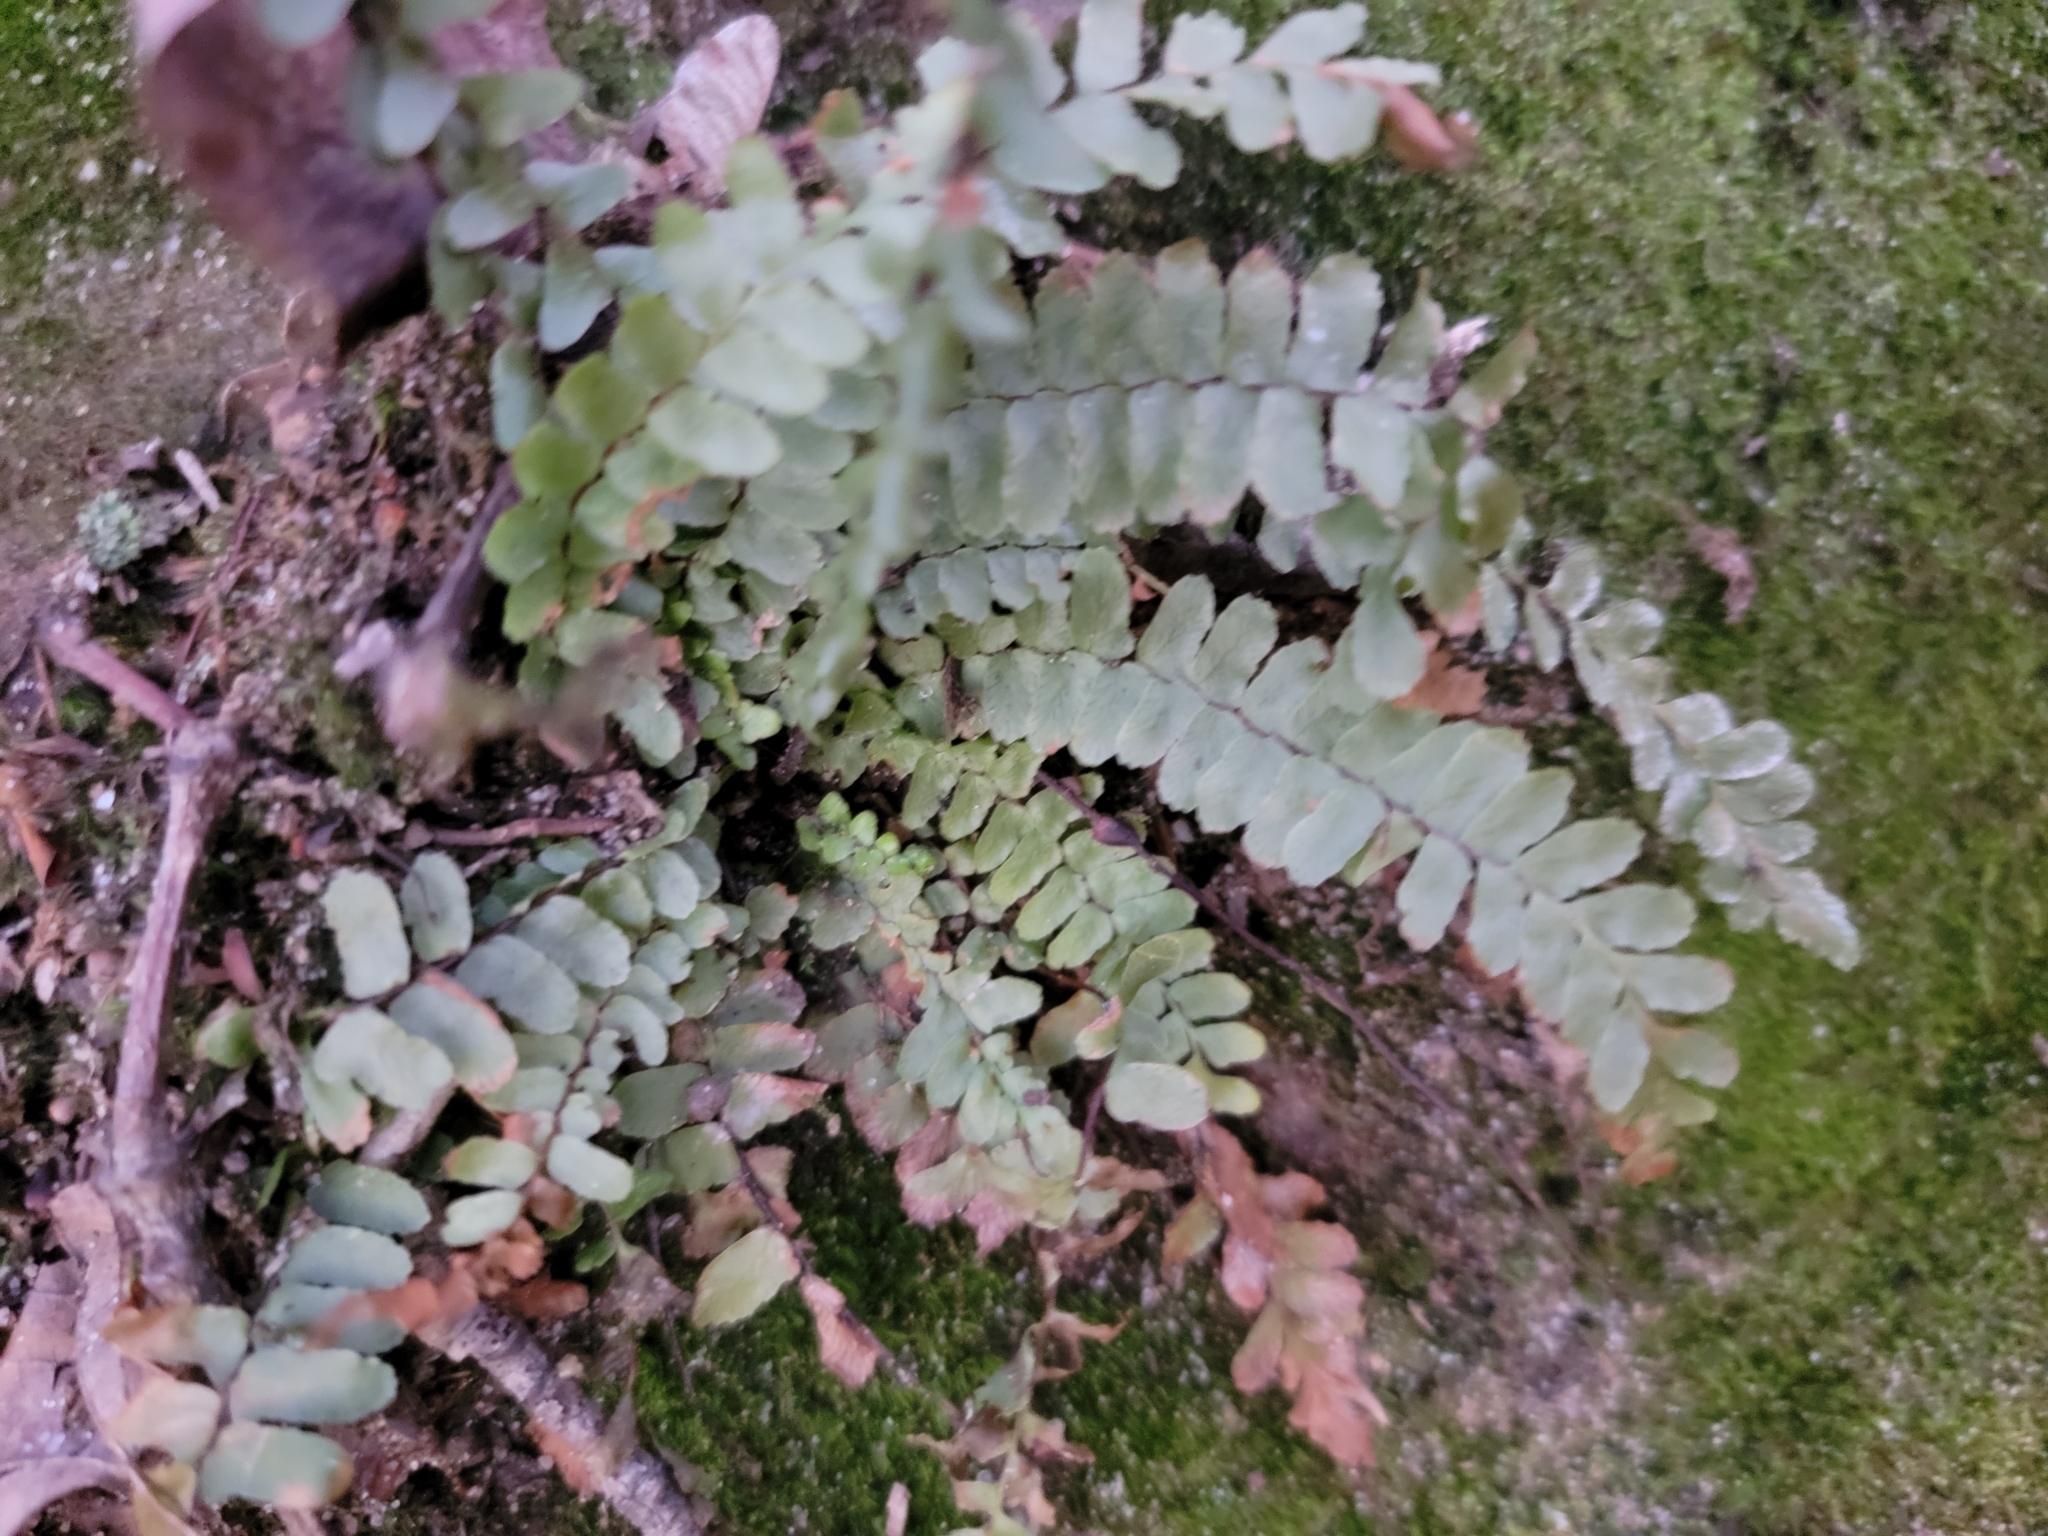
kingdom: Plantae
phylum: Tracheophyta
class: Polypodiopsida
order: Polypodiales
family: Aspleniaceae
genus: Asplenium
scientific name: Asplenium platyneuron
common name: Ebony spleenwort
